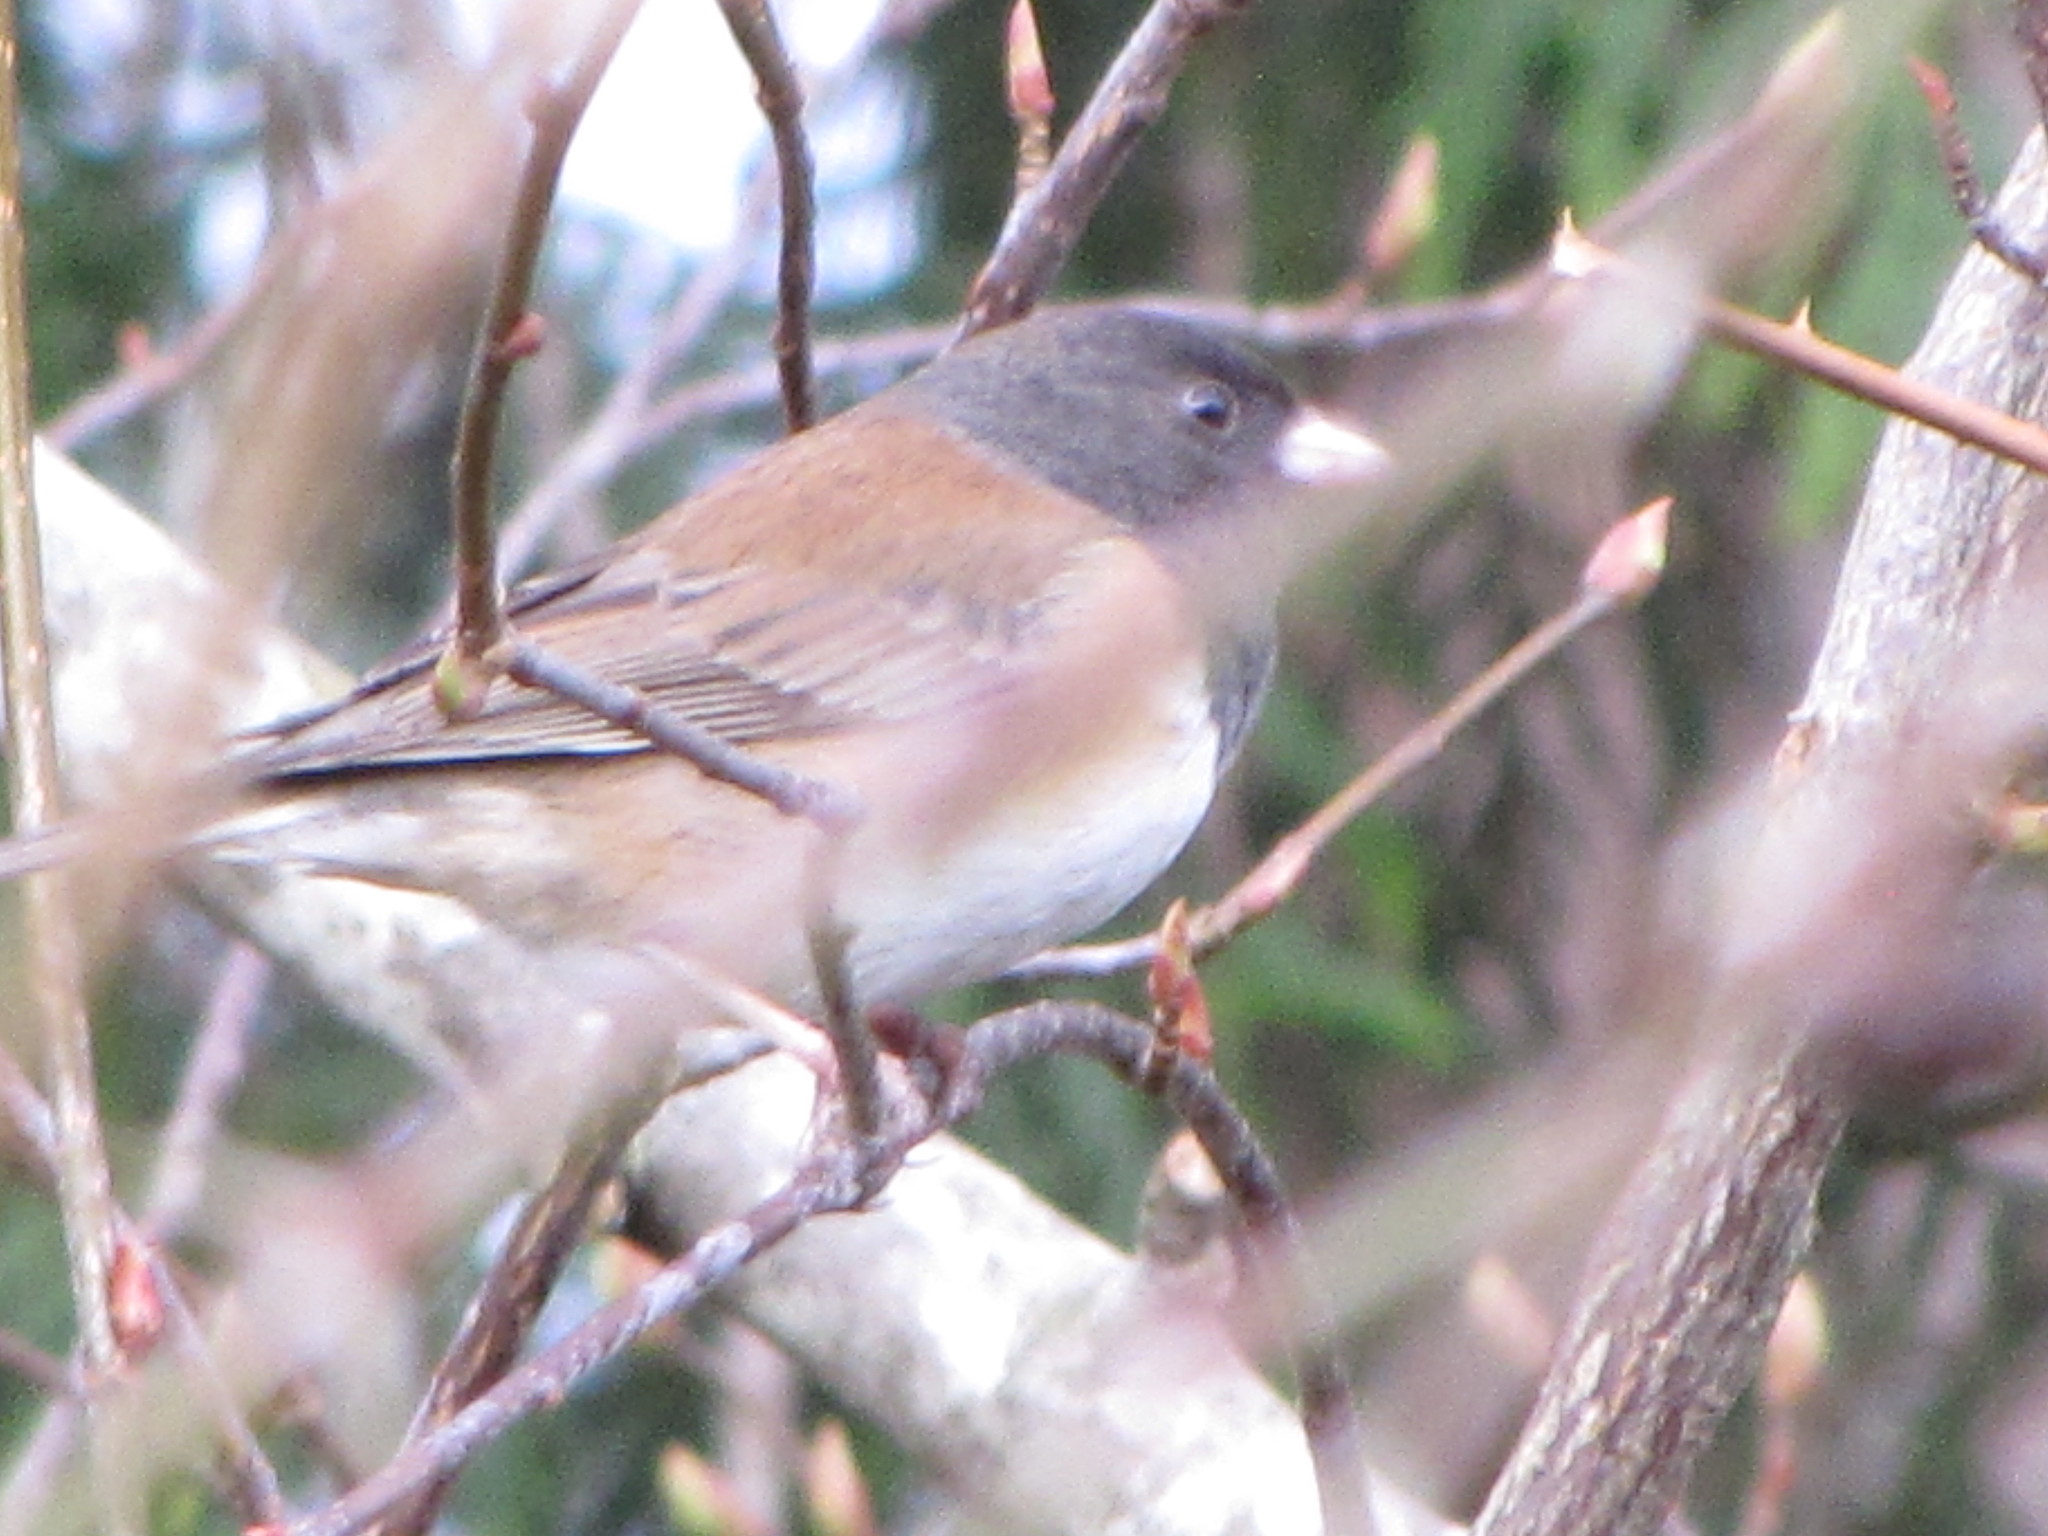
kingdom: Animalia
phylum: Chordata
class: Aves
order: Passeriformes
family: Passerellidae
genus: Junco
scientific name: Junco hyemalis
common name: Dark-eyed junco
